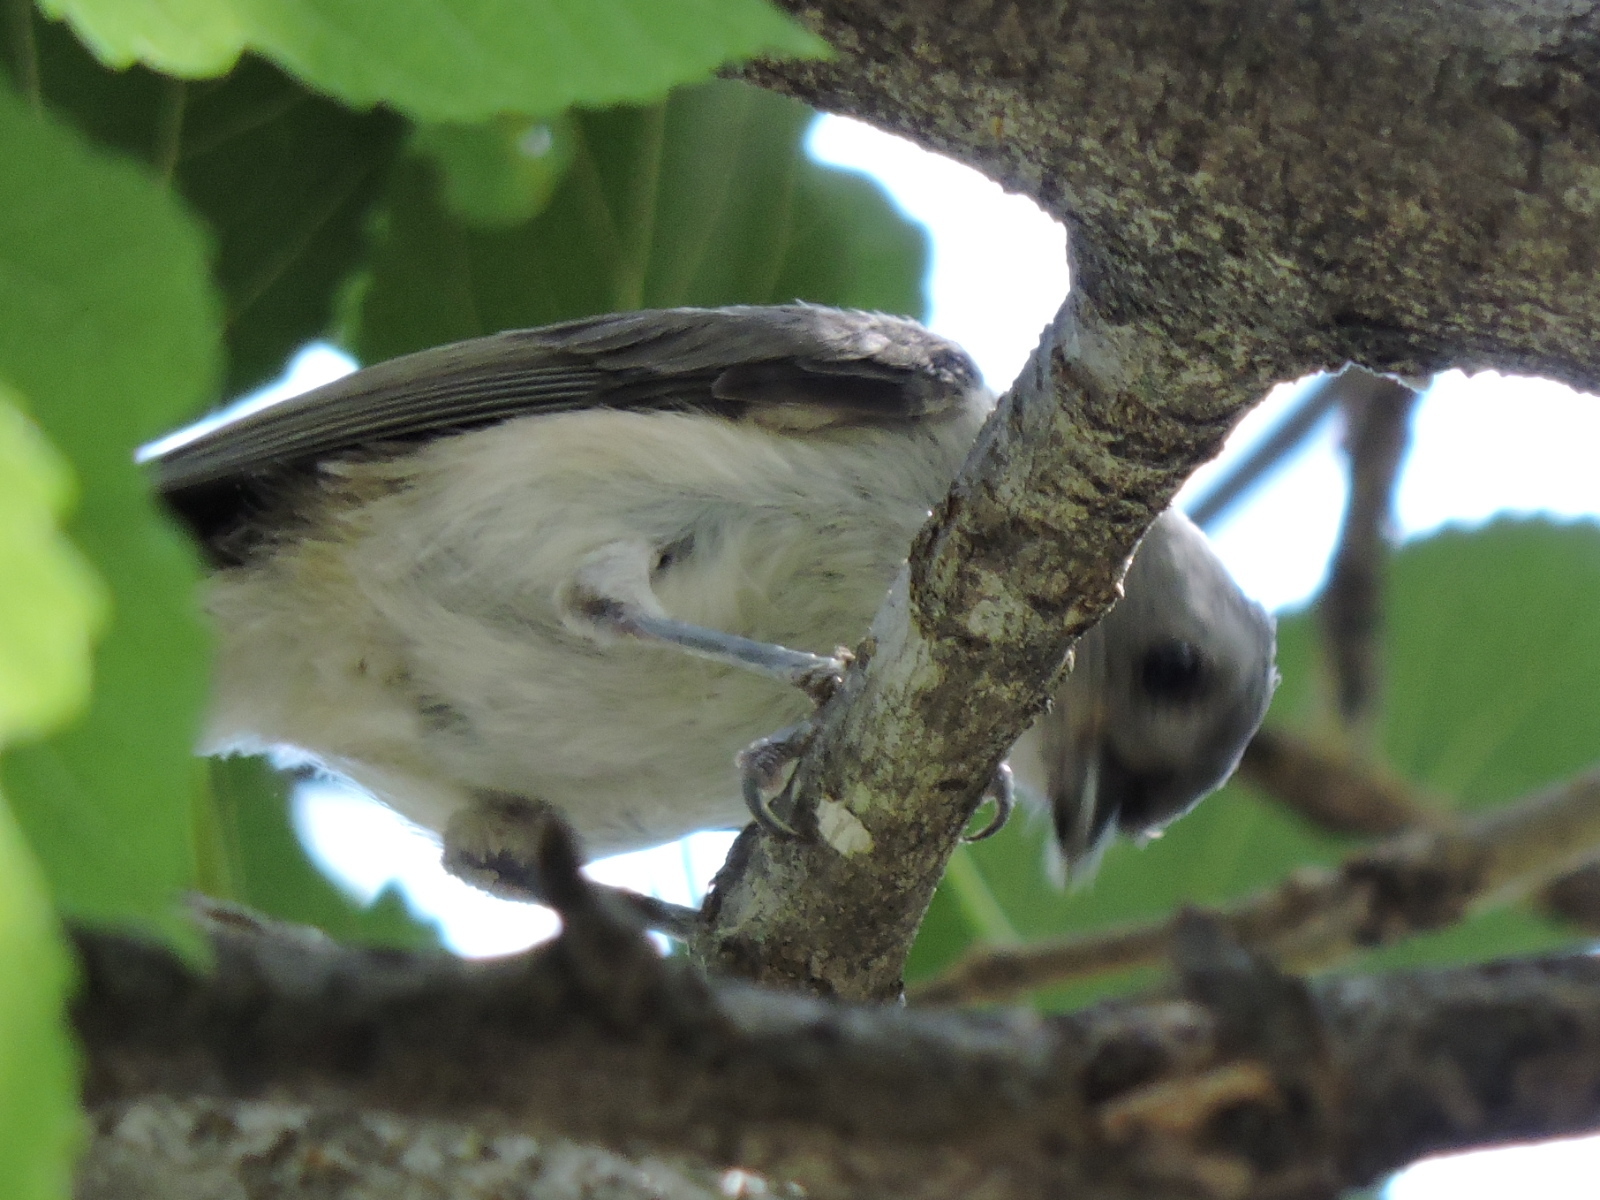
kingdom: Animalia
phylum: Chordata
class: Aves
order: Passeriformes
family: Paridae
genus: Baeolophus
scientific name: Baeolophus bicolor
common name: Tufted titmouse
